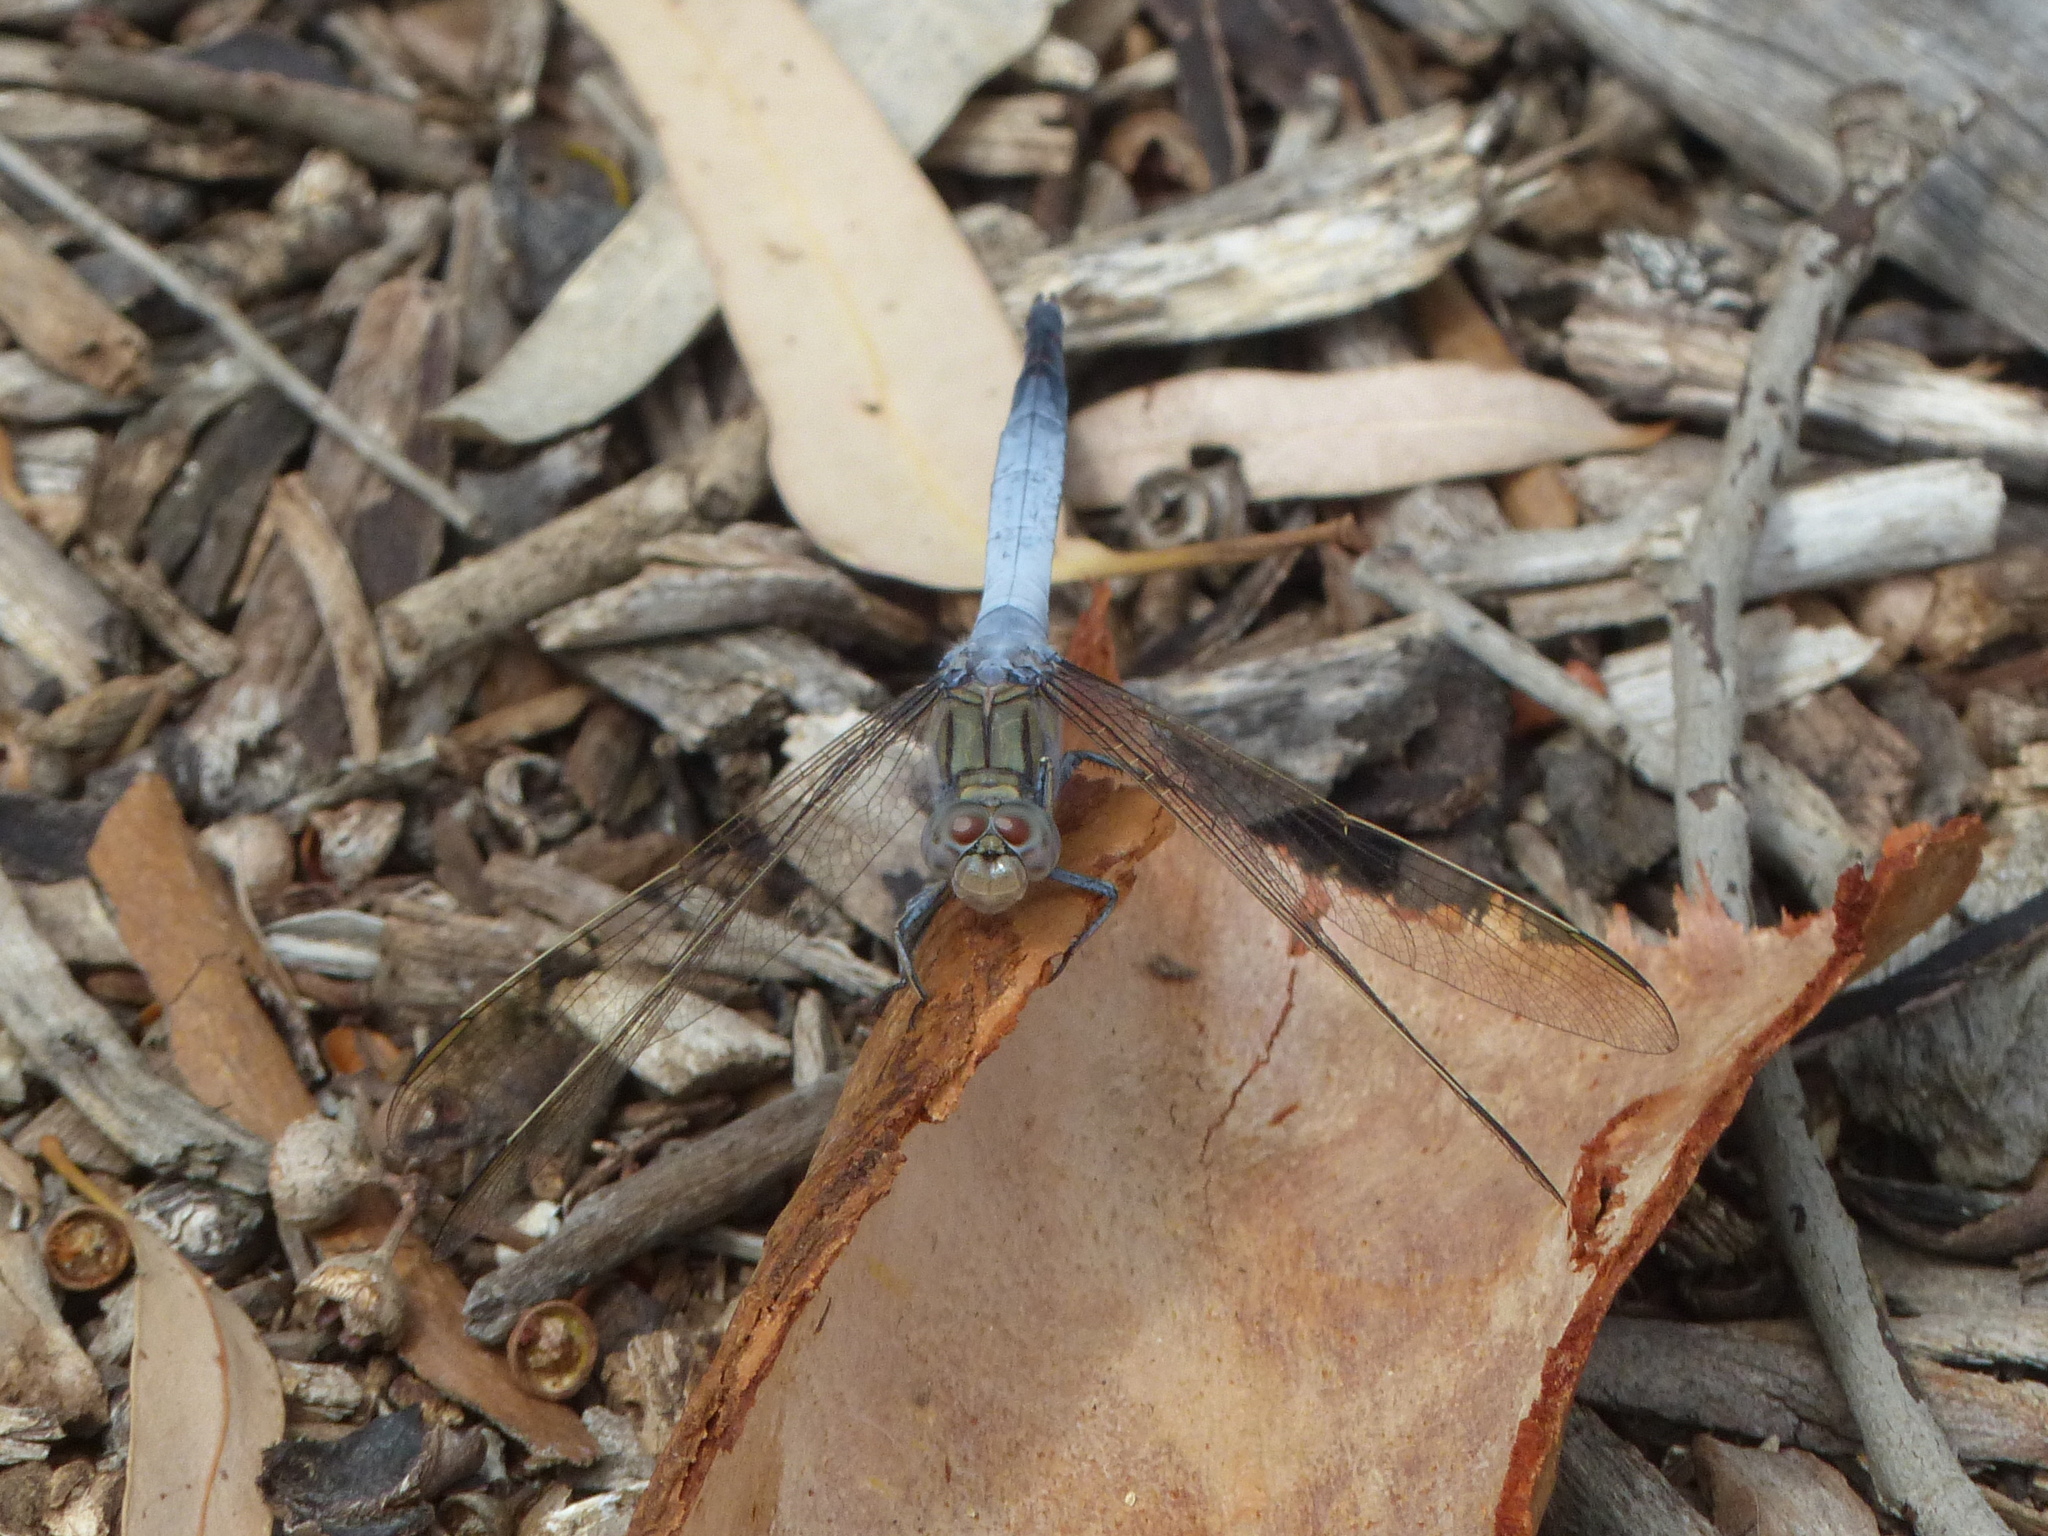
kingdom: Animalia
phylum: Arthropoda
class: Insecta
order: Odonata
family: Libellulidae
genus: Orthetrum
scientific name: Orthetrum caledonicum
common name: Blue skimmer
